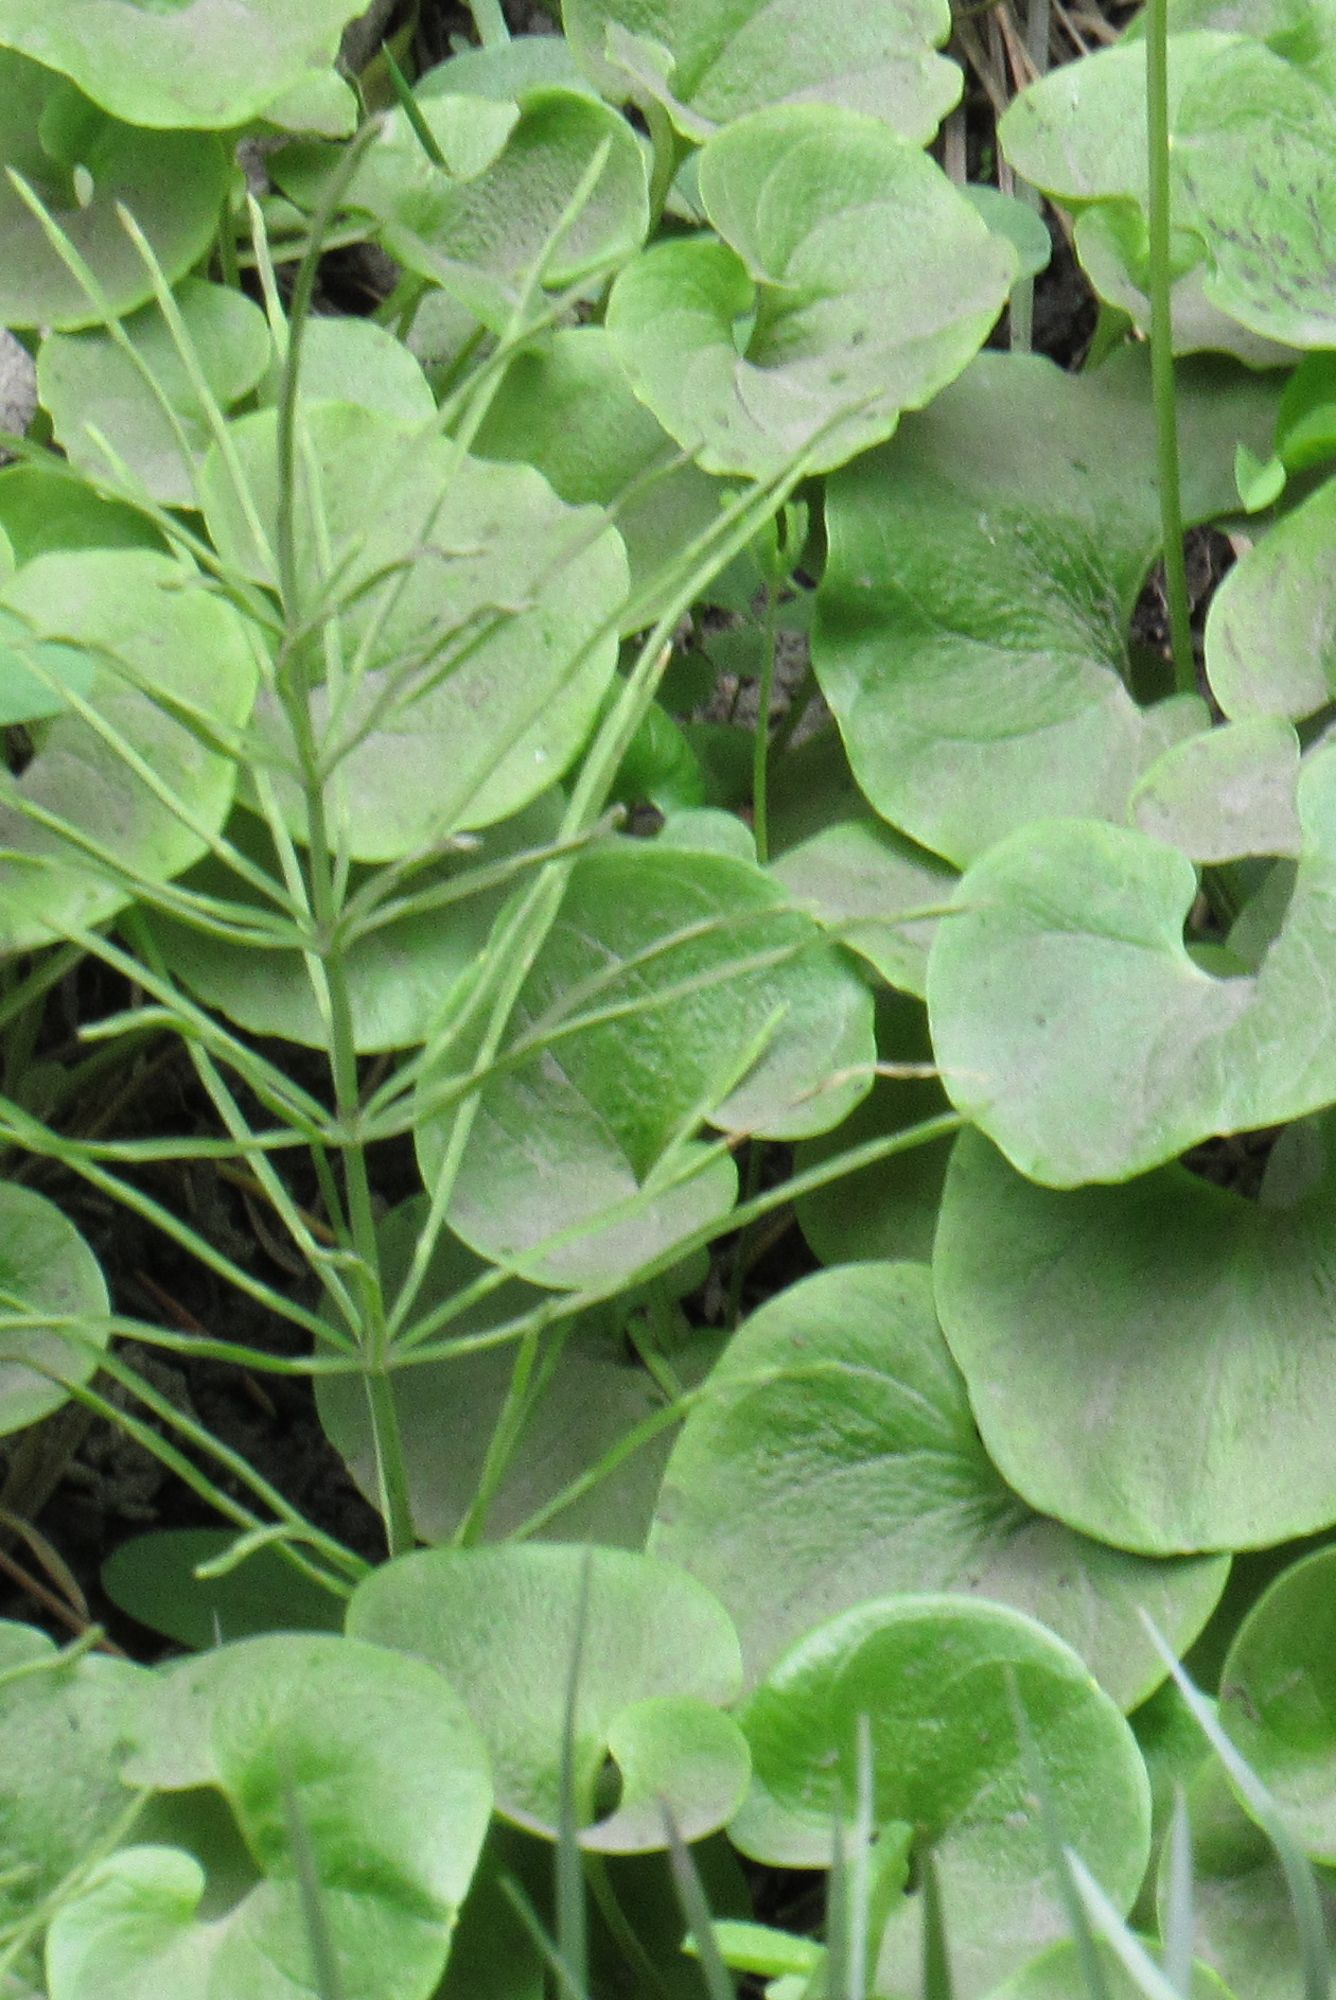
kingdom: Plantae
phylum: Tracheophyta
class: Polypodiopsida
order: Equisetales
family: Equisetaceae
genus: Equisetum
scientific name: Equisetum arvense
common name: Field horsetail
